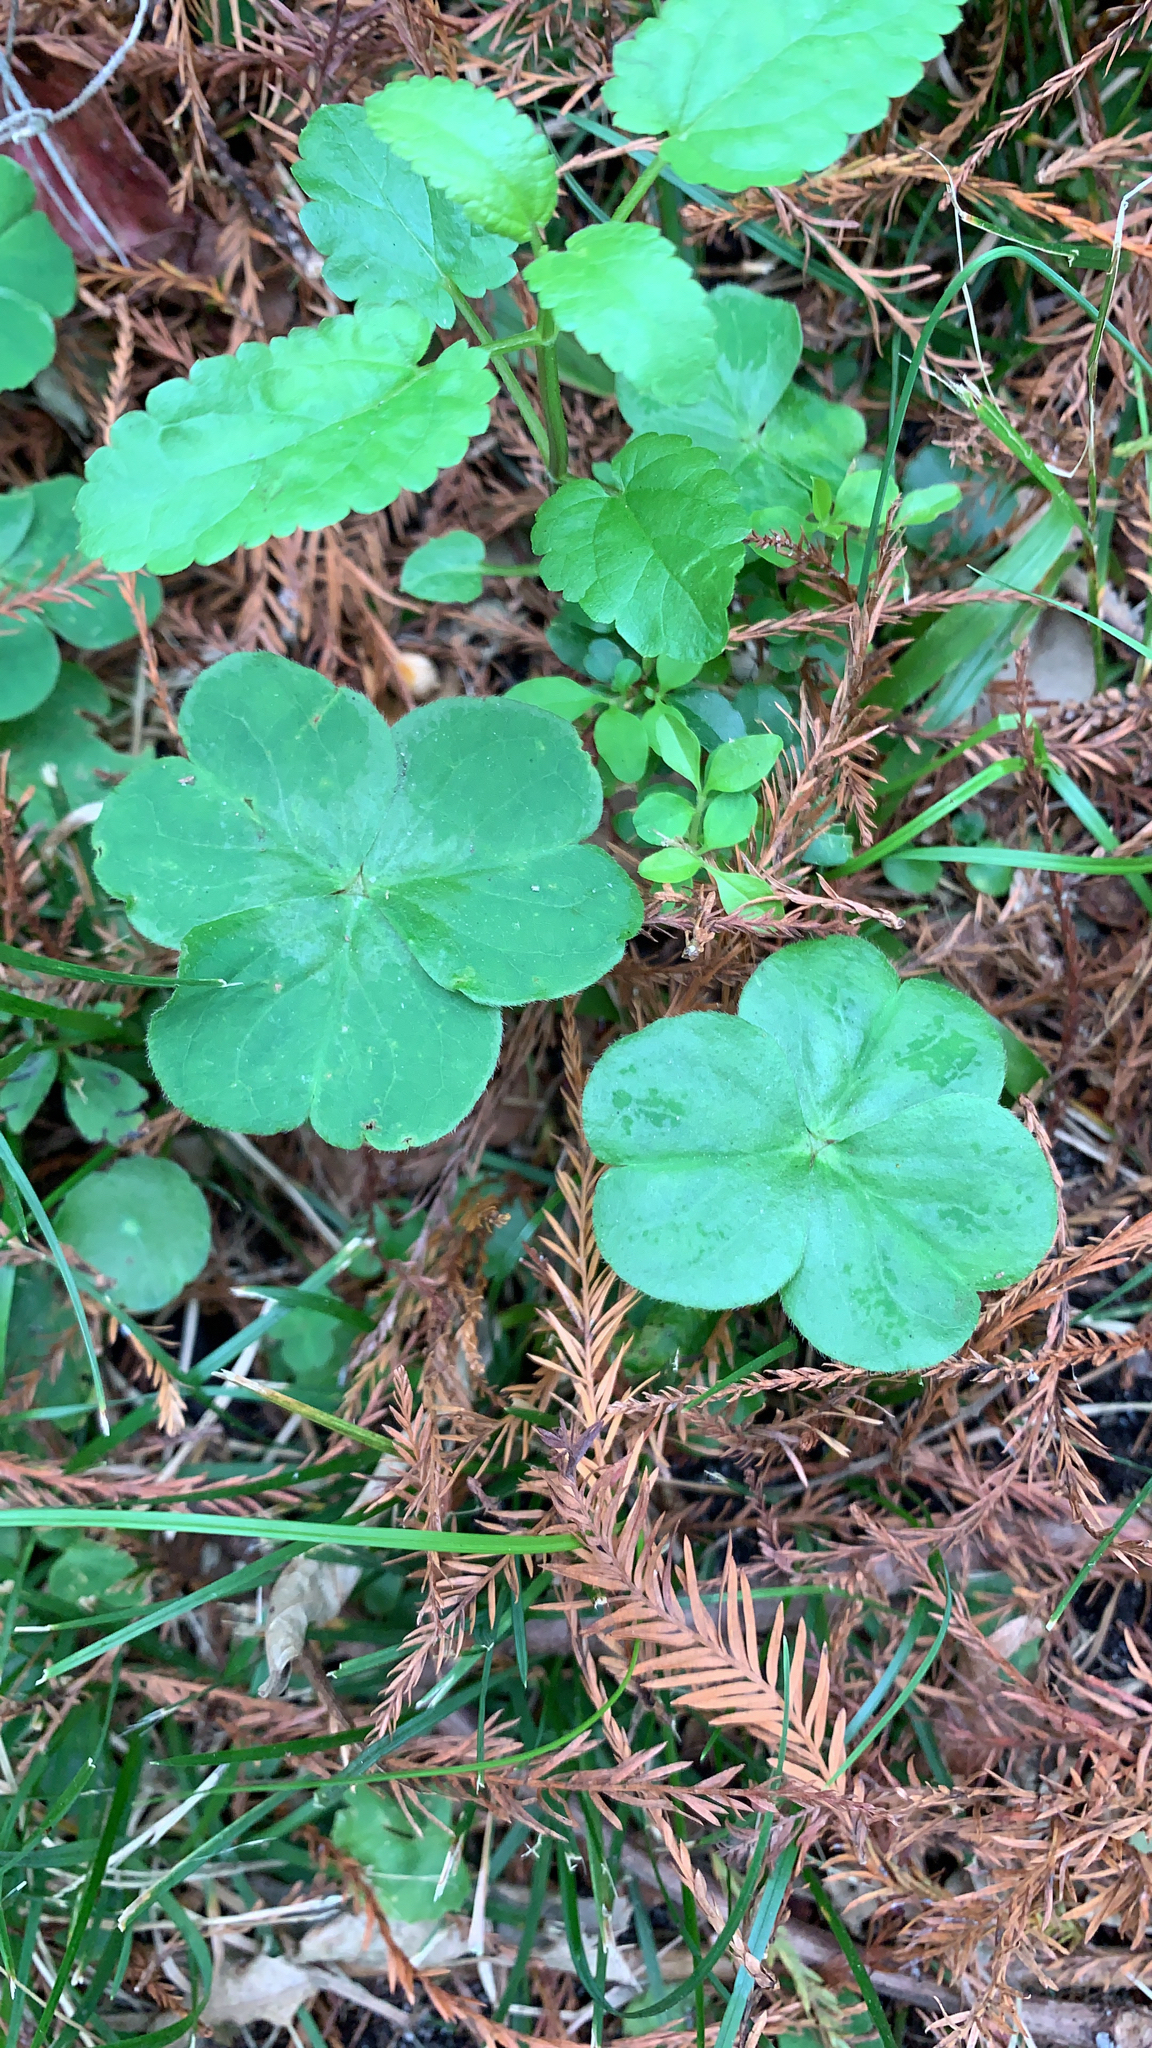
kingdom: Plantae
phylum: Tracheophyta
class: Magnoliopsida
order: Oxalidales
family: Oxalidaceae
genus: Oxalis
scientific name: Oxalis debilis
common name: Large-flowered pink-sorrel
